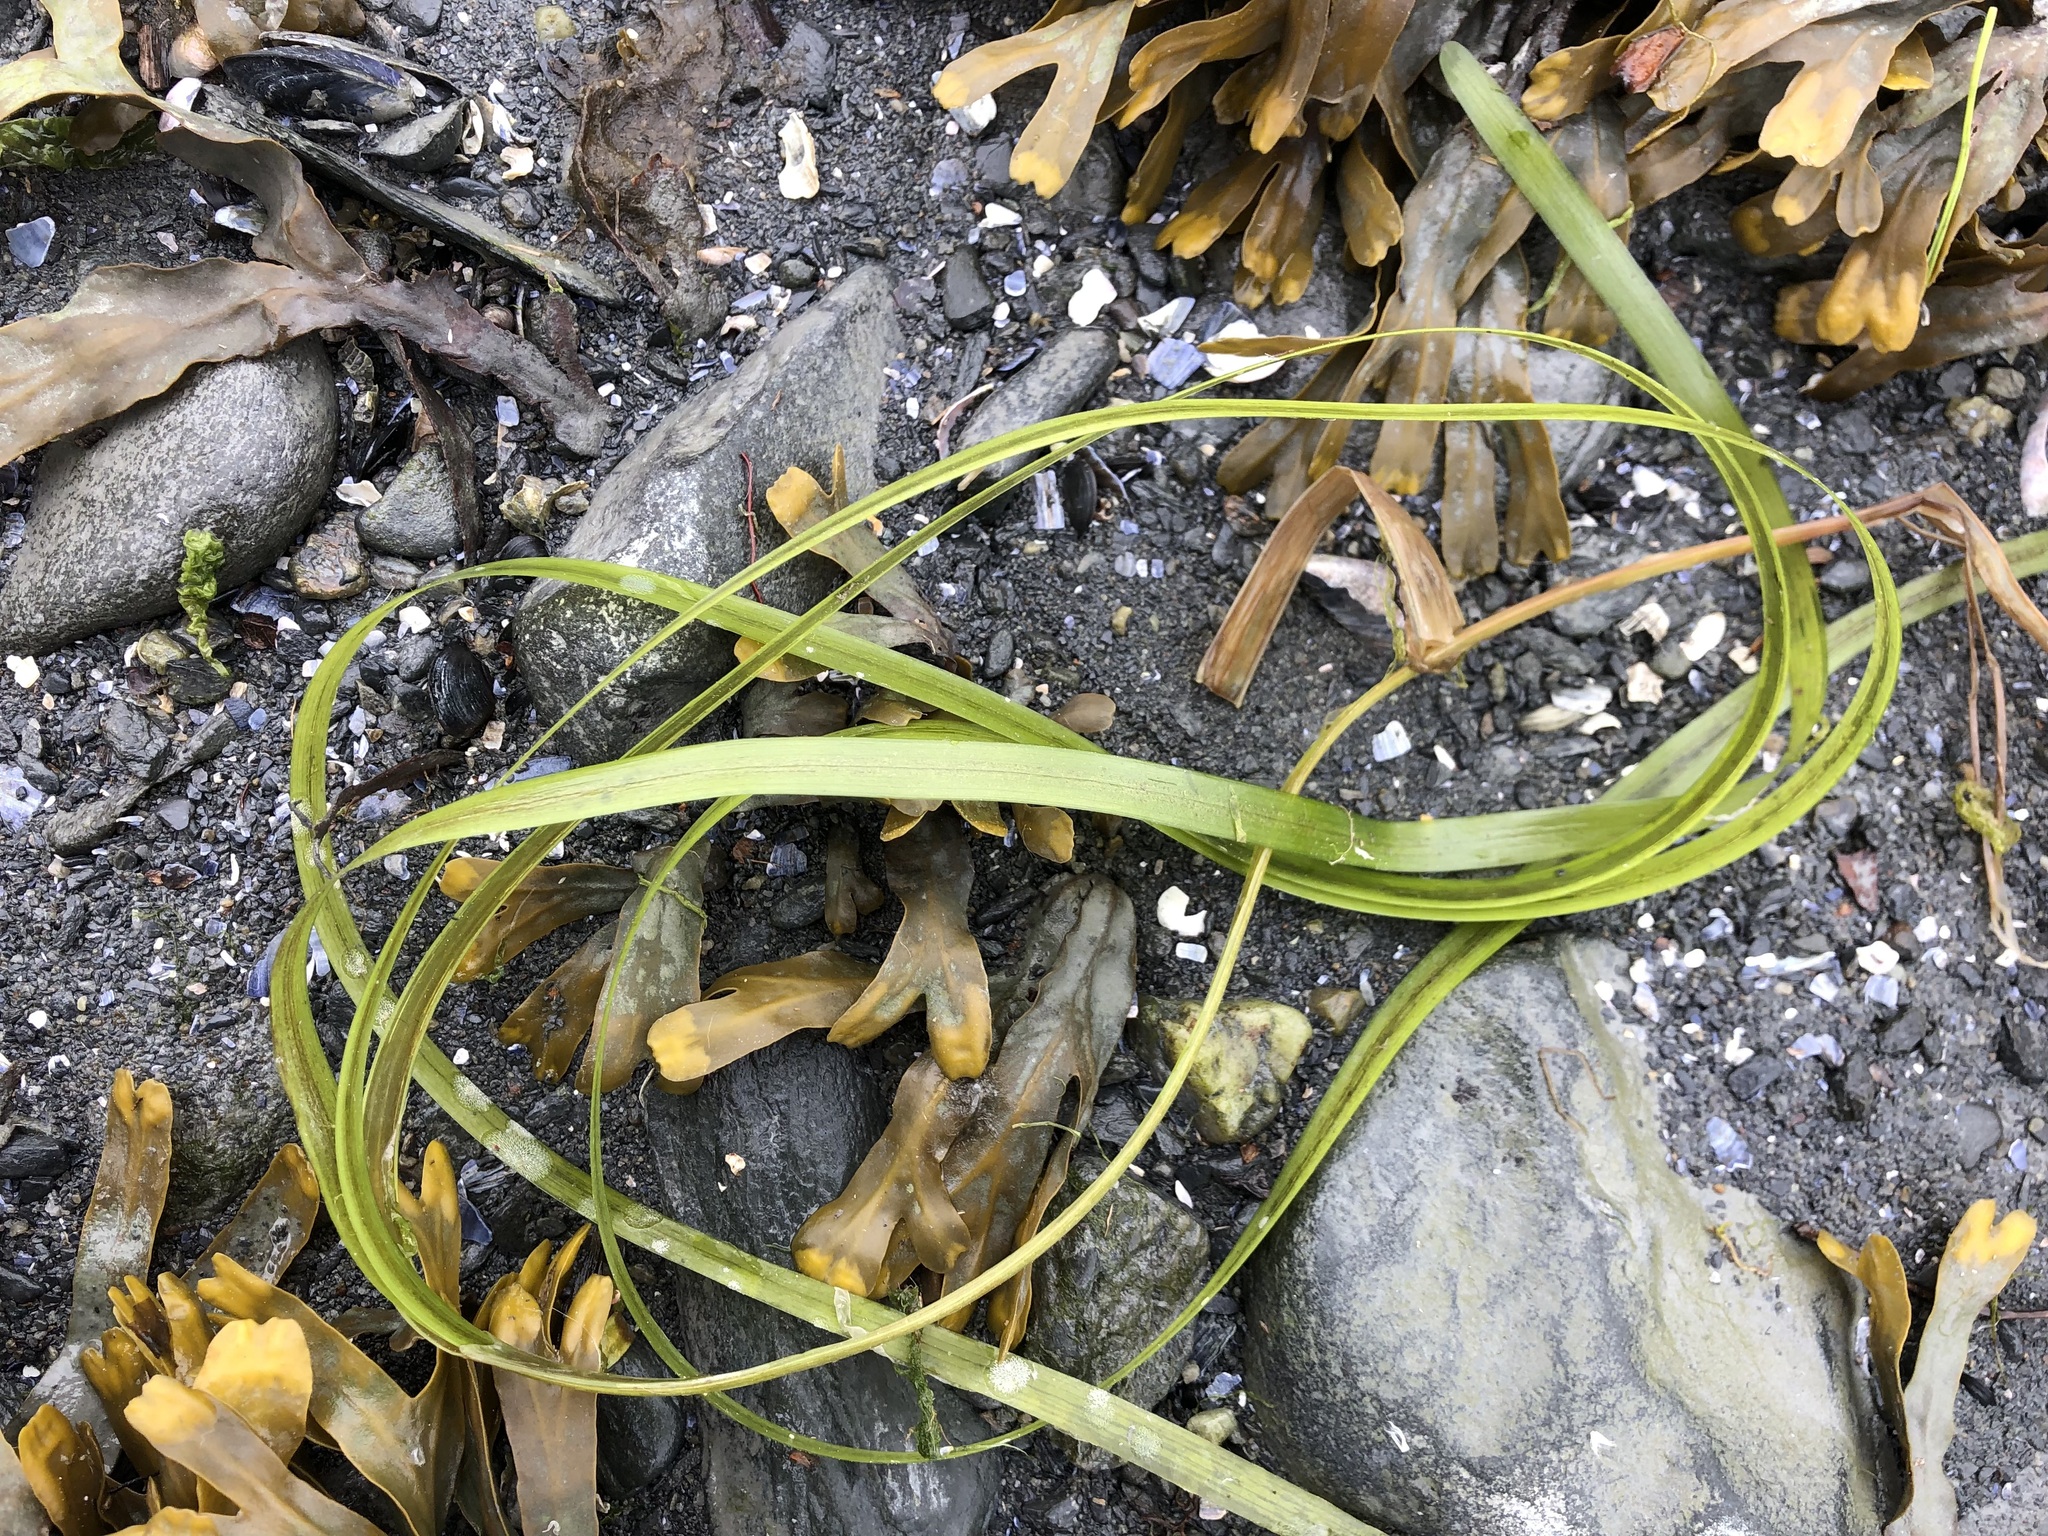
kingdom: Plantae
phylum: Tracheophyta
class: Liliopsida
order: Alismatales
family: Zosteraceae
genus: Zostera
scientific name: Zostera marina
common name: Eelgrass
